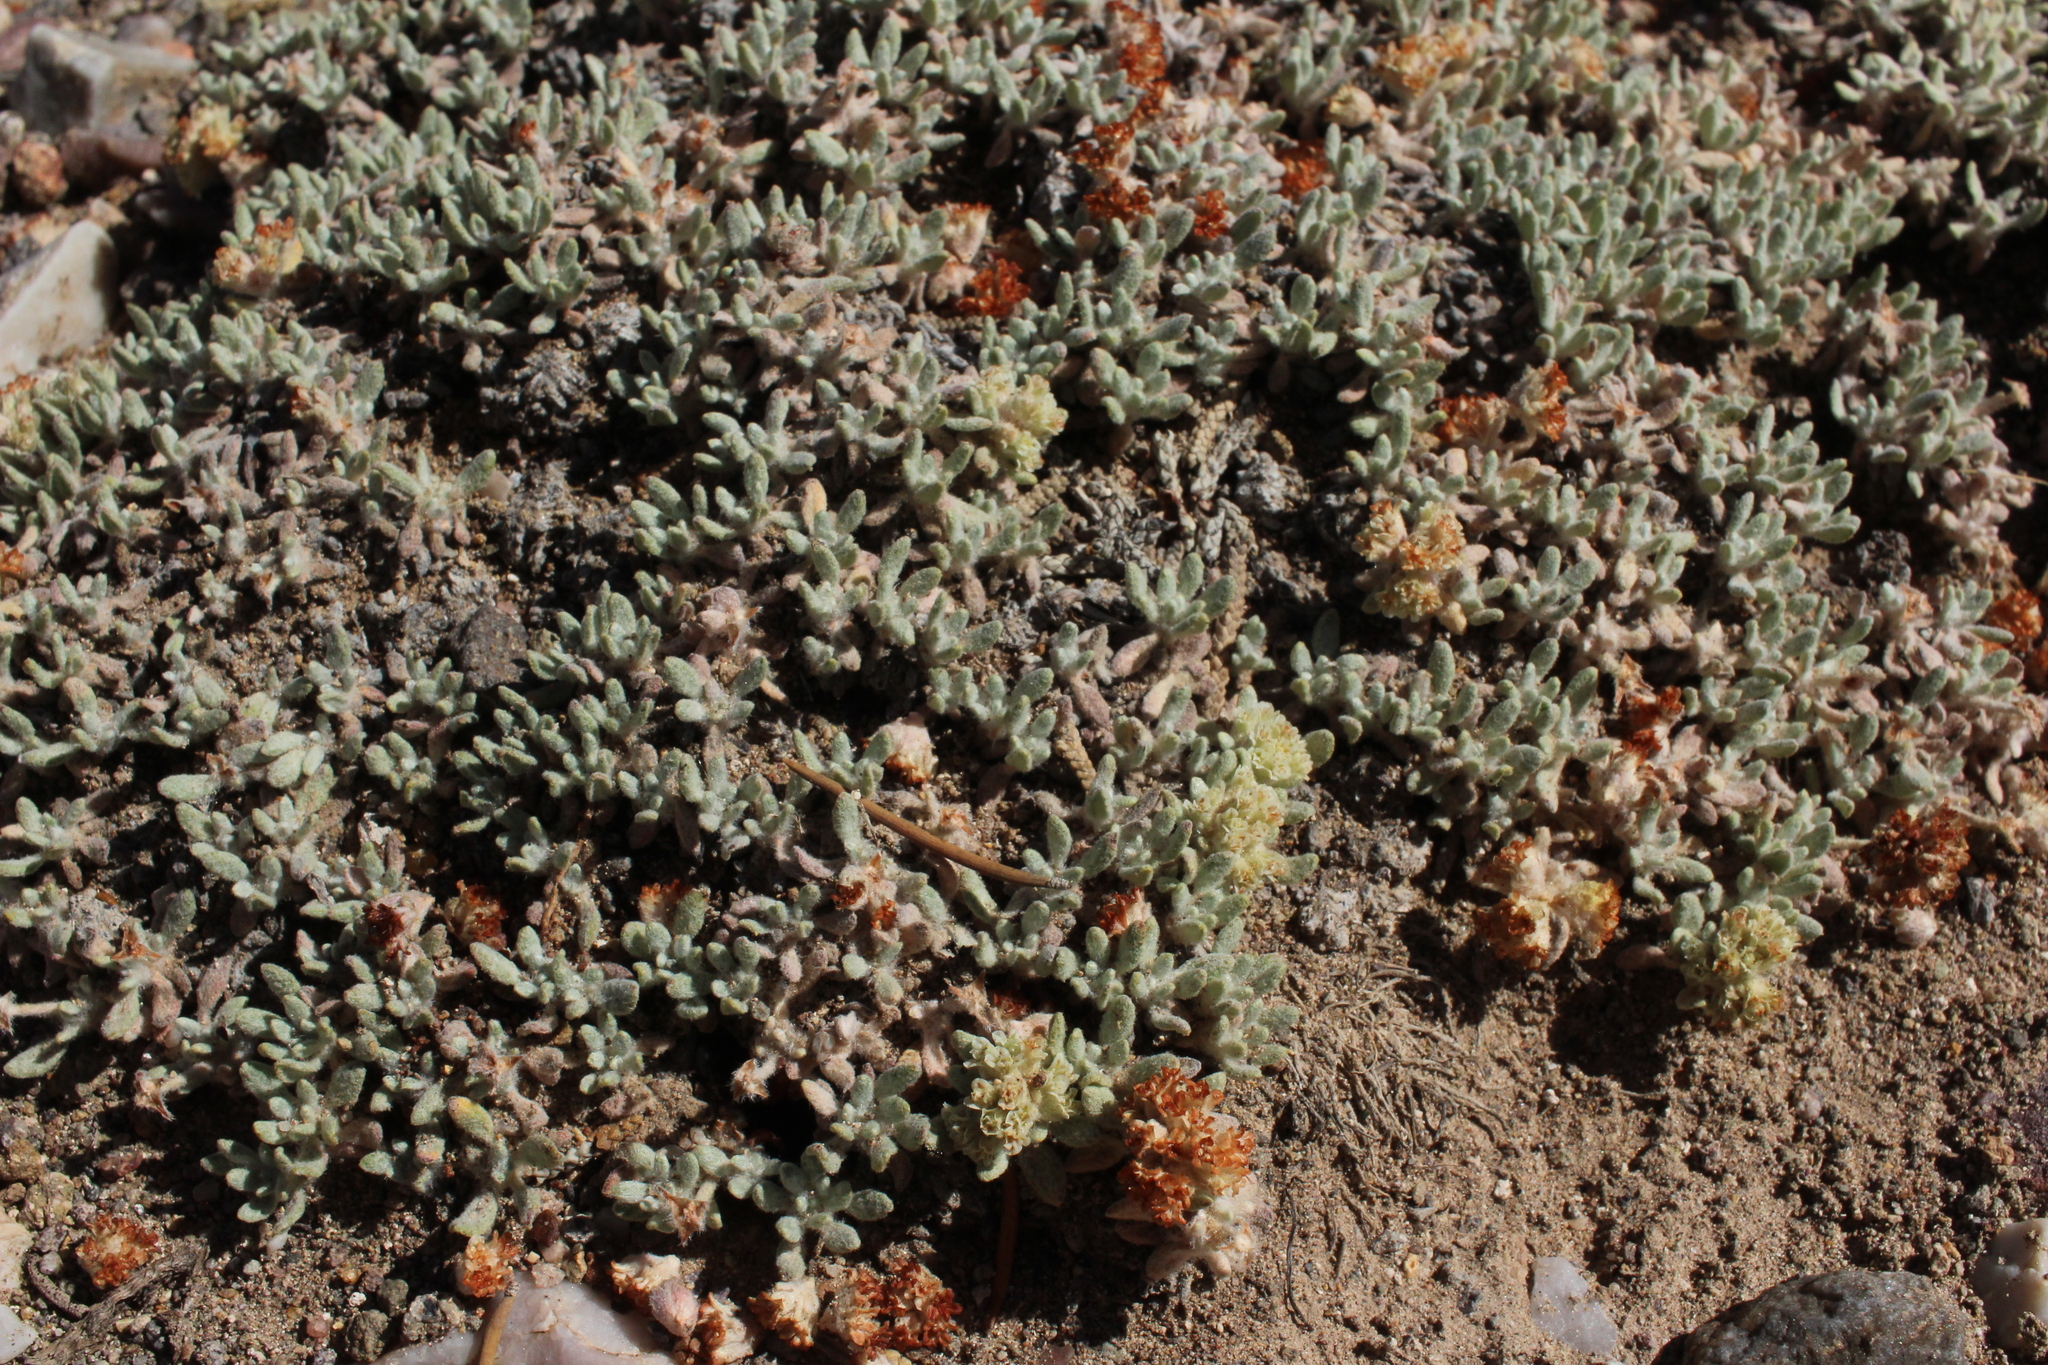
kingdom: Plantae
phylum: Tracheophyta
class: Magnoliopsida
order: Caryophyllales
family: Polygonaceae
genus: Eriogonum
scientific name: Eriogonum shockleyi
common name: Shockley's wild buckwheat
